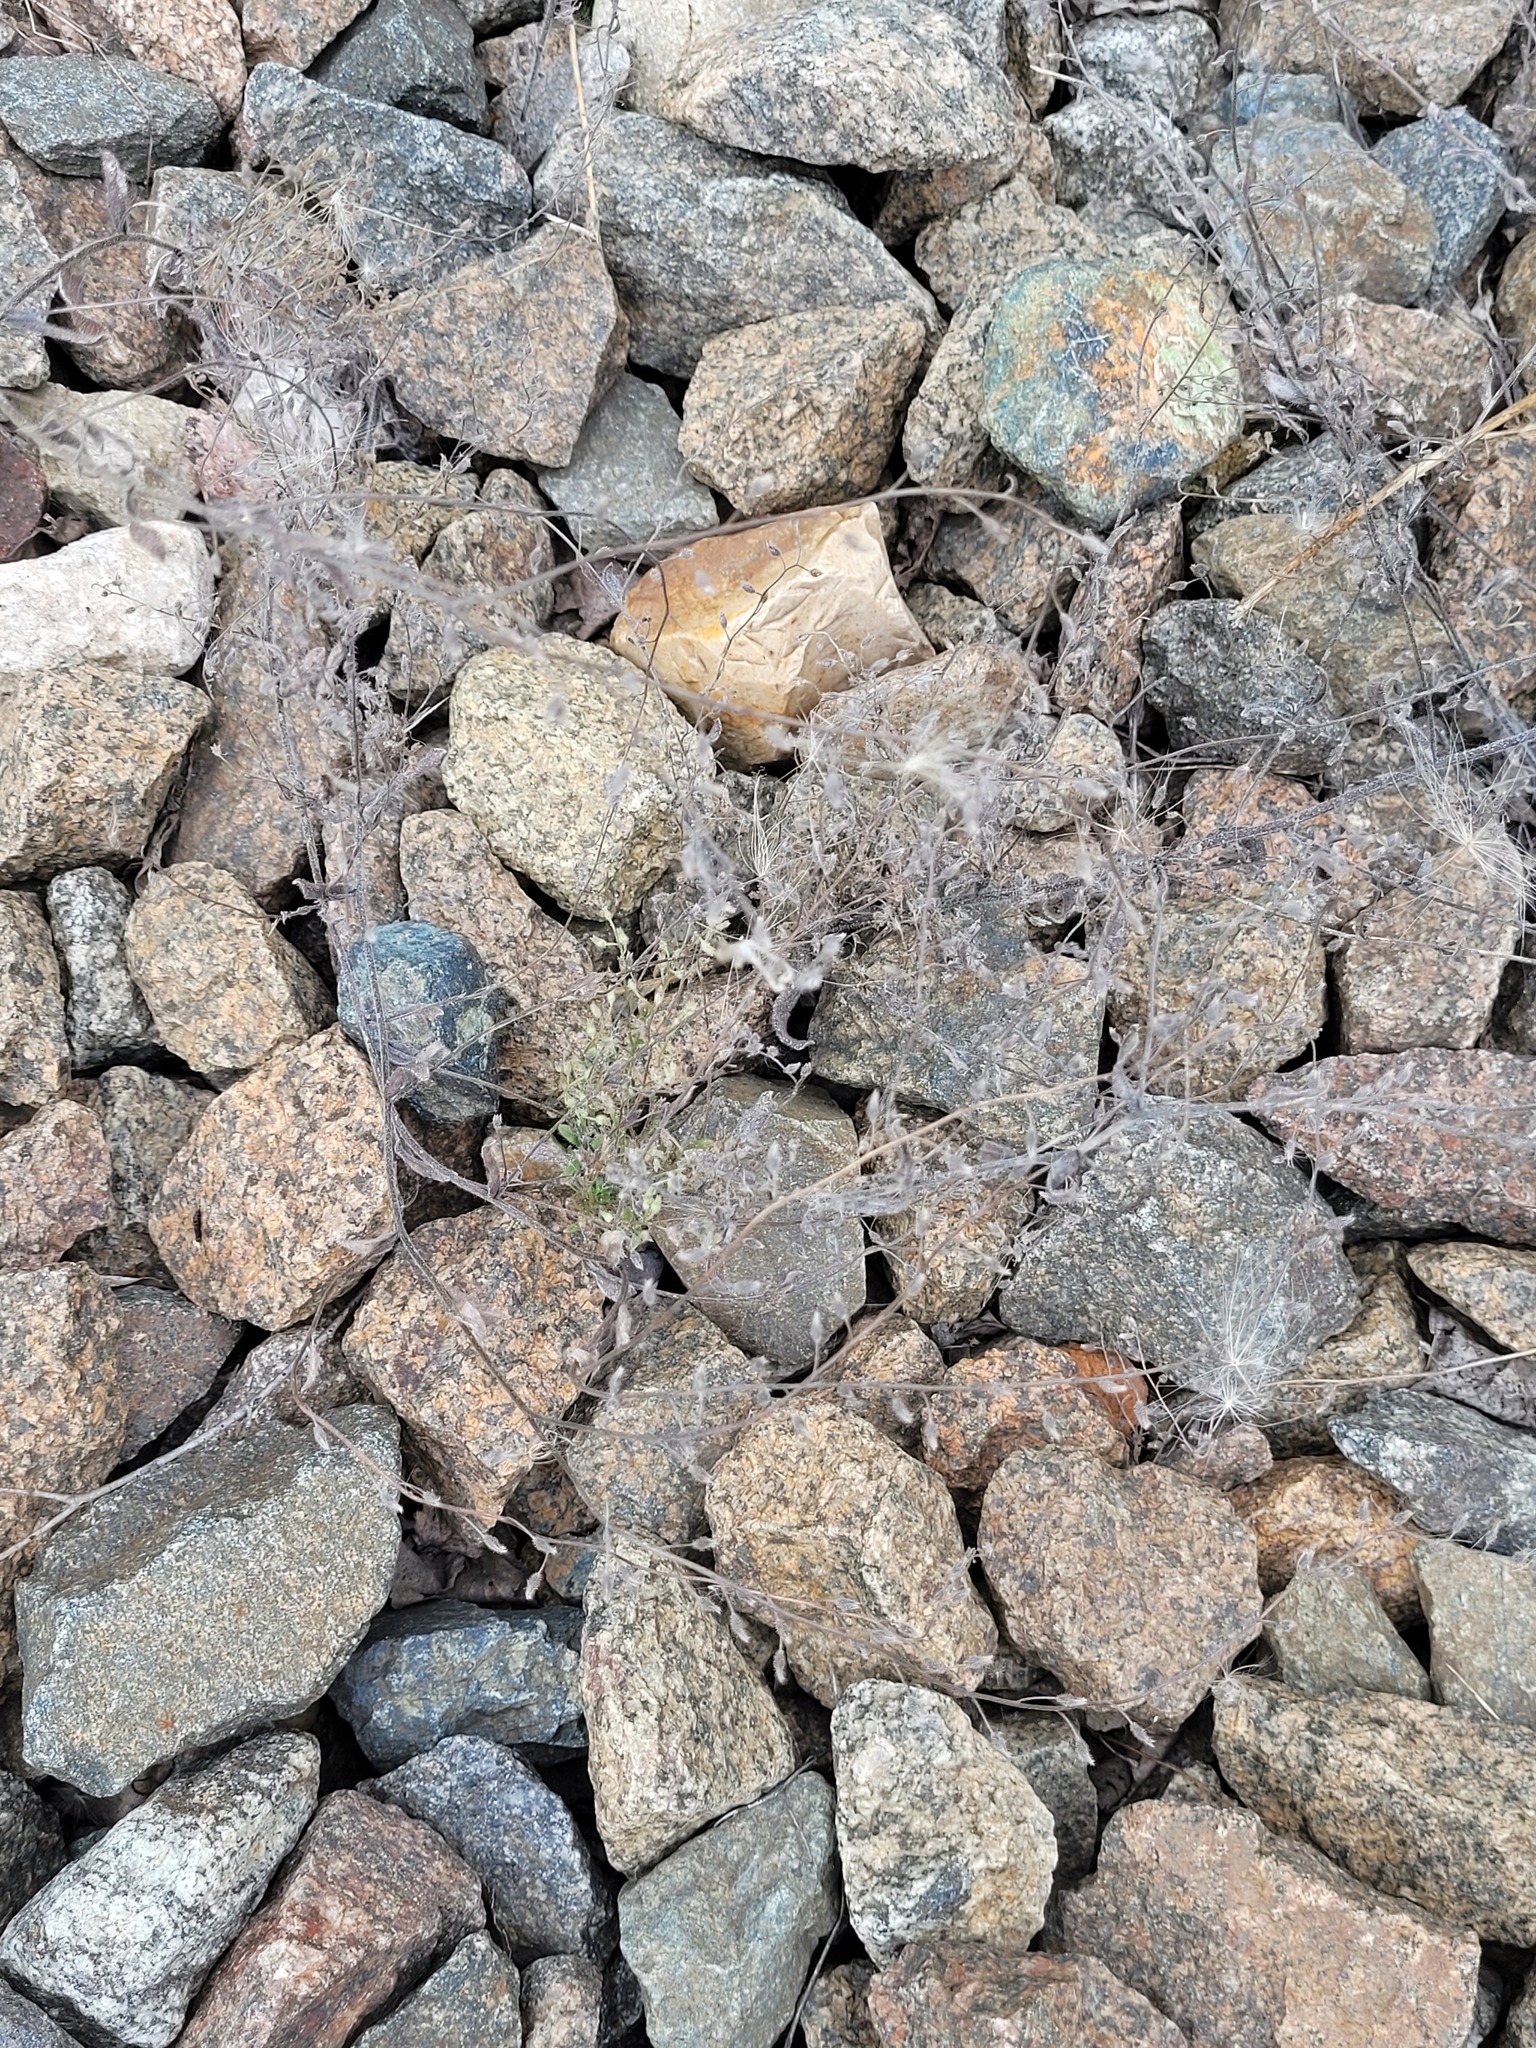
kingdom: Plantae
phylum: Tracheophyta
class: Magnoliopsida
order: Boraginales
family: Boraginaceae
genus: Myosotis
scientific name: Myosotis arvensis
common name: Field forget-me-not
